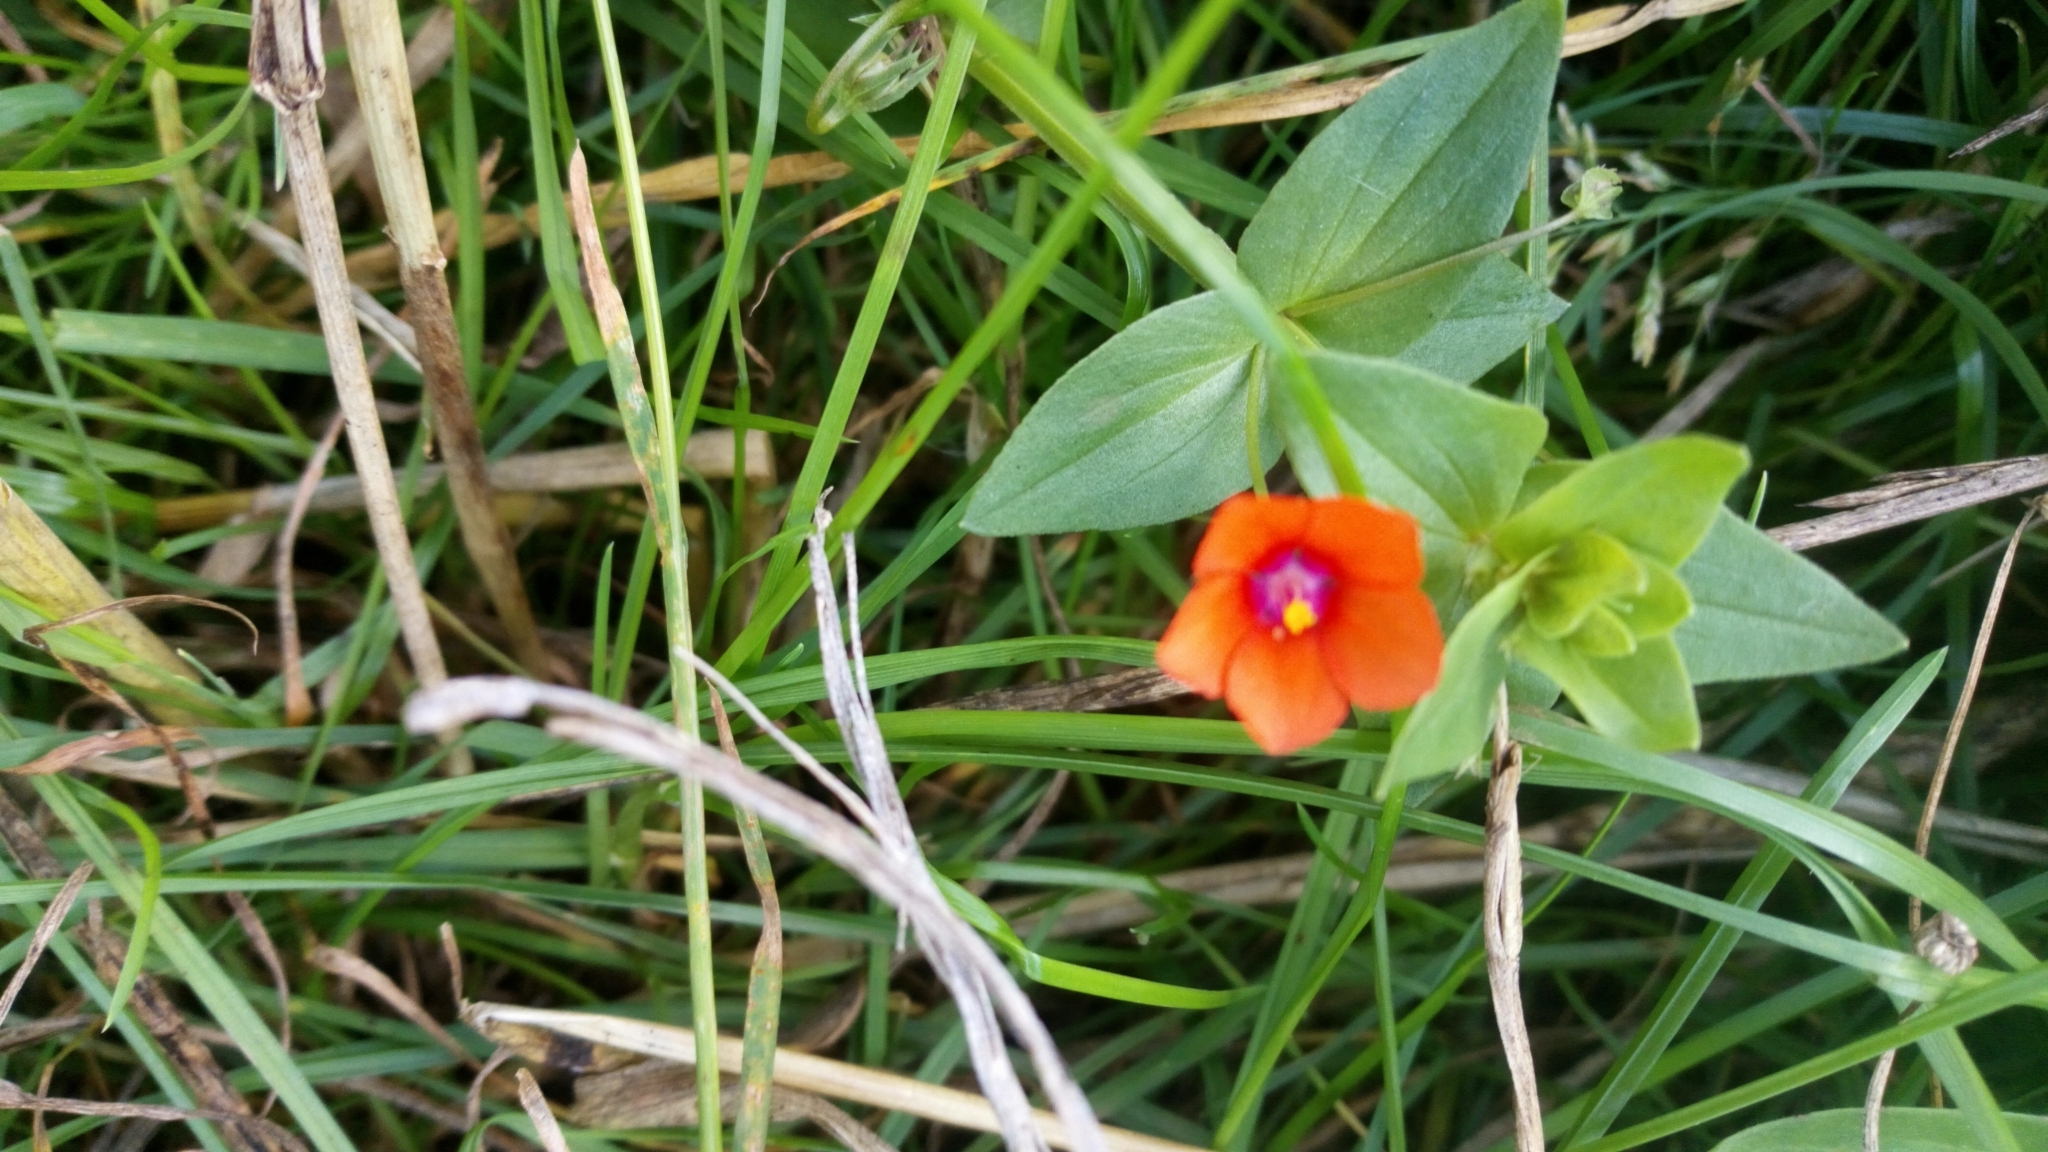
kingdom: Plantae
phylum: Tracheophyta
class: Magnoliopsida
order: Ericales
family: Primulaceae
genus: Lysimachia
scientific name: Lysimachia arvensis
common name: Scarlet pimpernel
